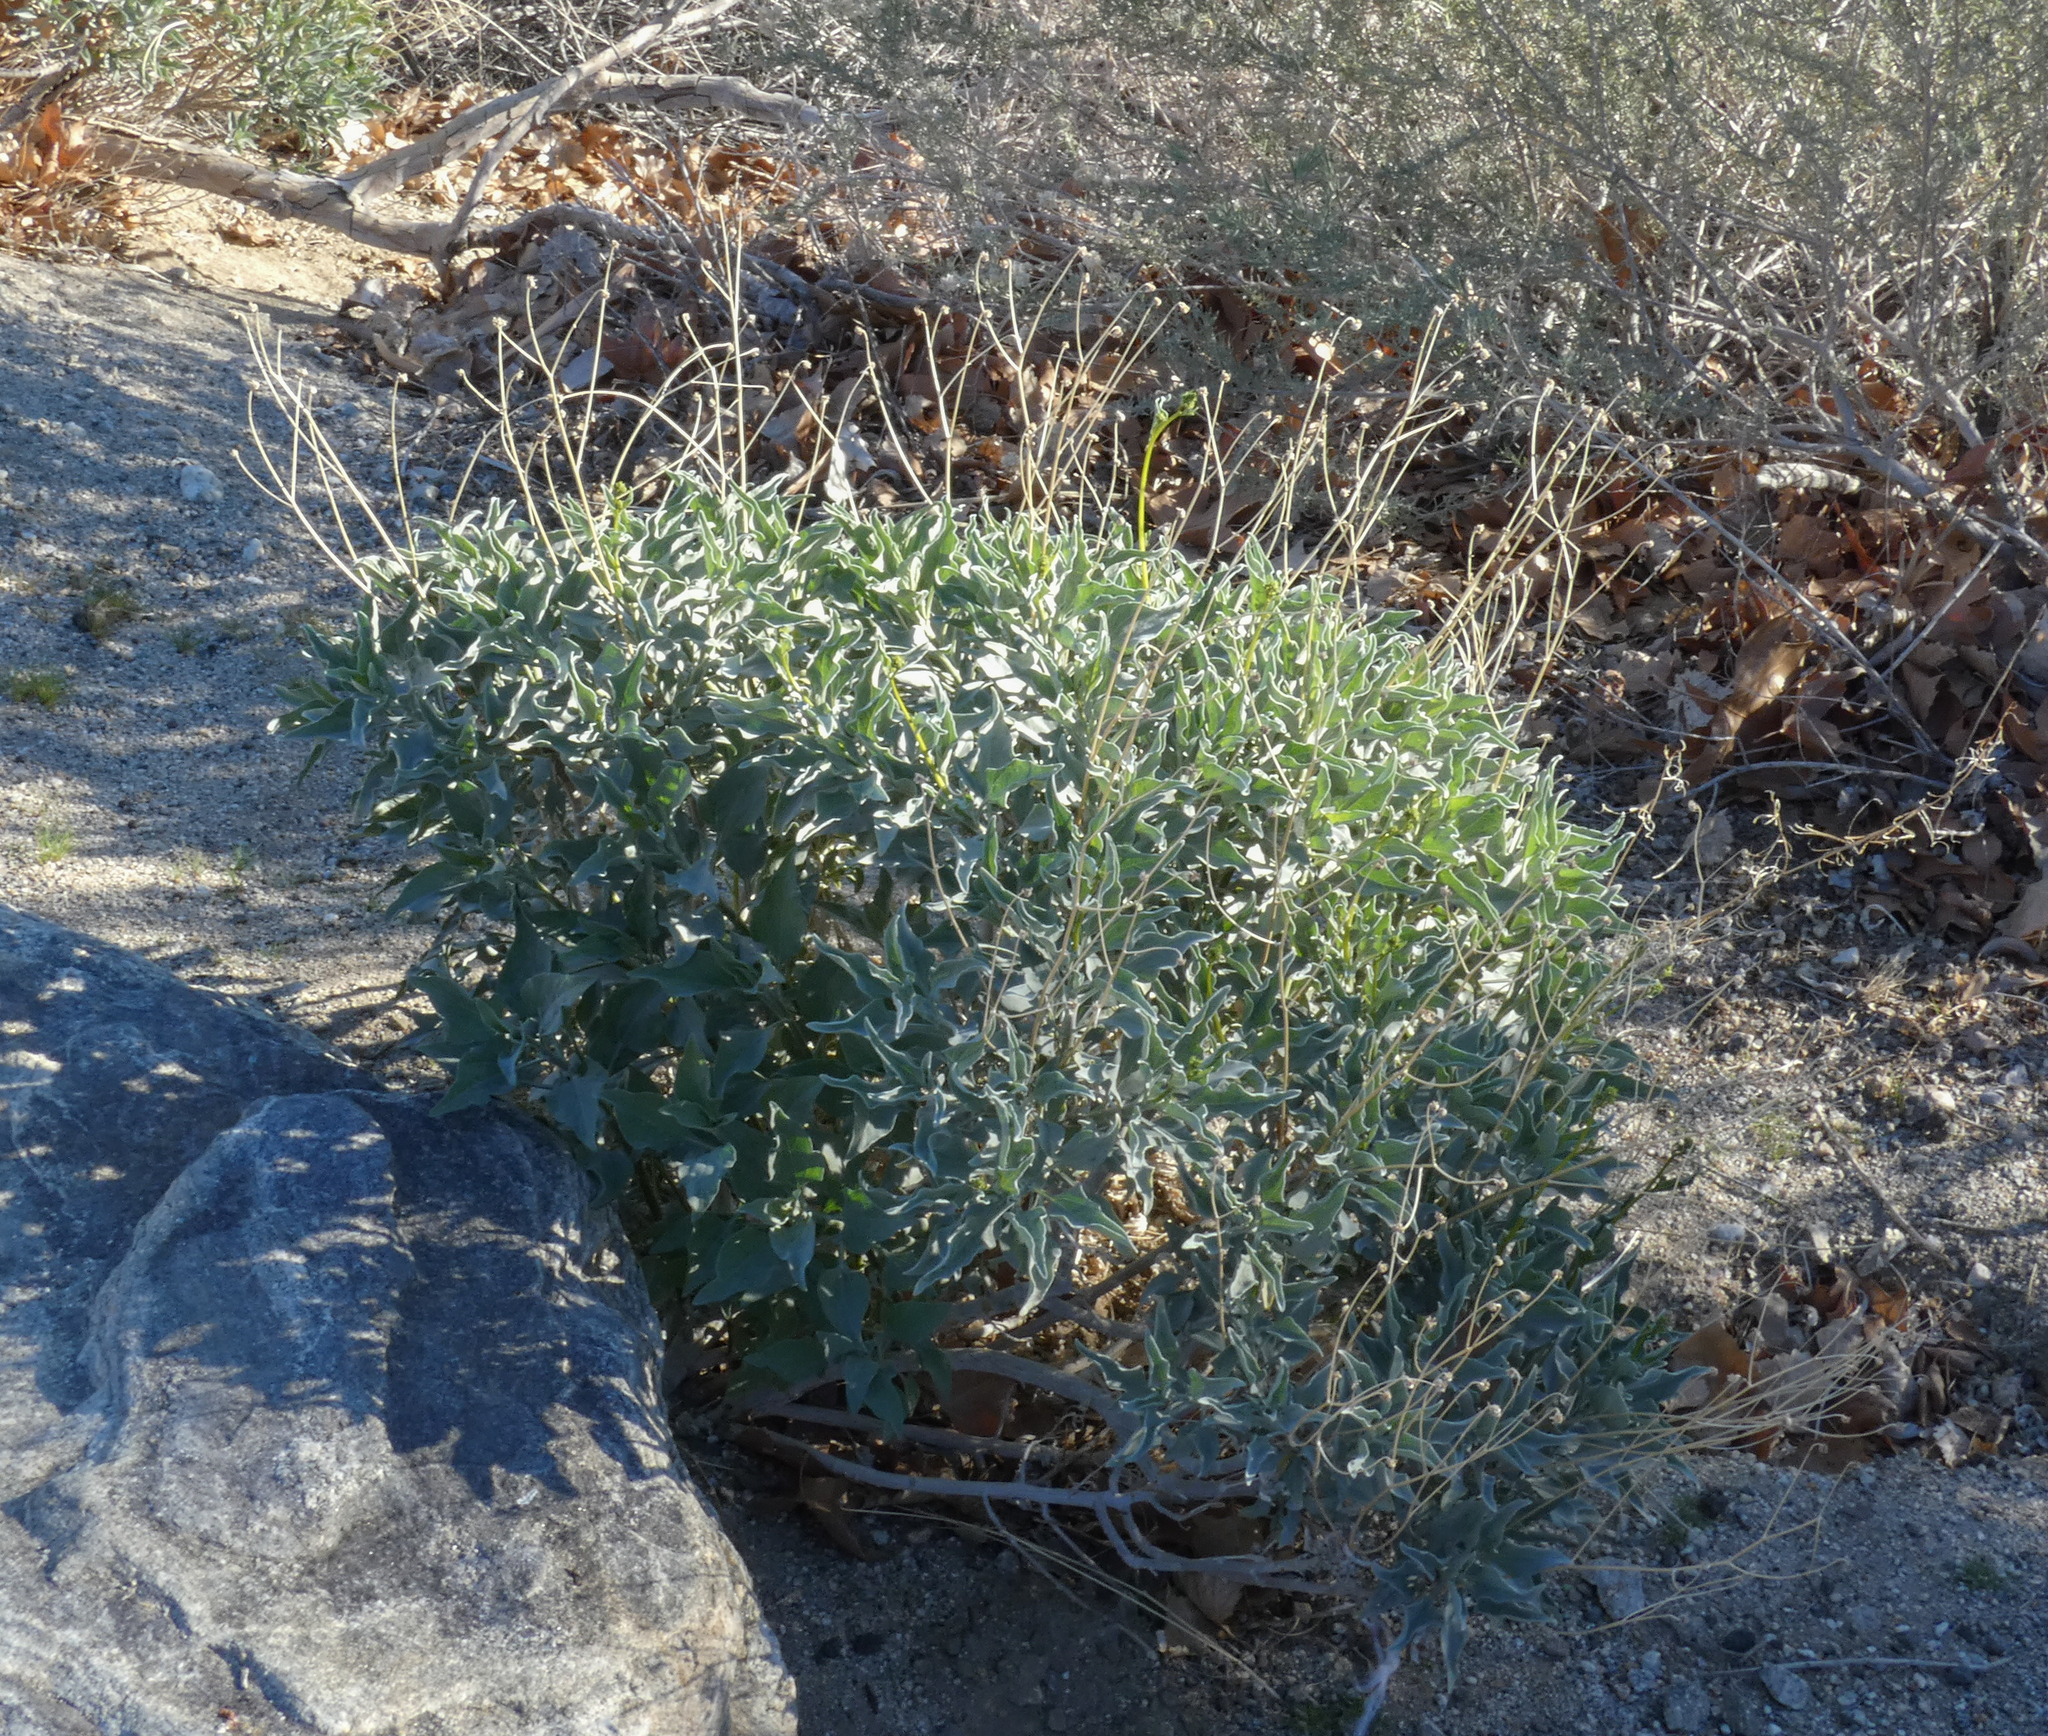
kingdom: Plantae
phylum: Tracheophyta
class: Magnoliopsida
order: Asterales
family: Asteraceae
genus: Encelia
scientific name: Encelia farinosa
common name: Brittlebush
